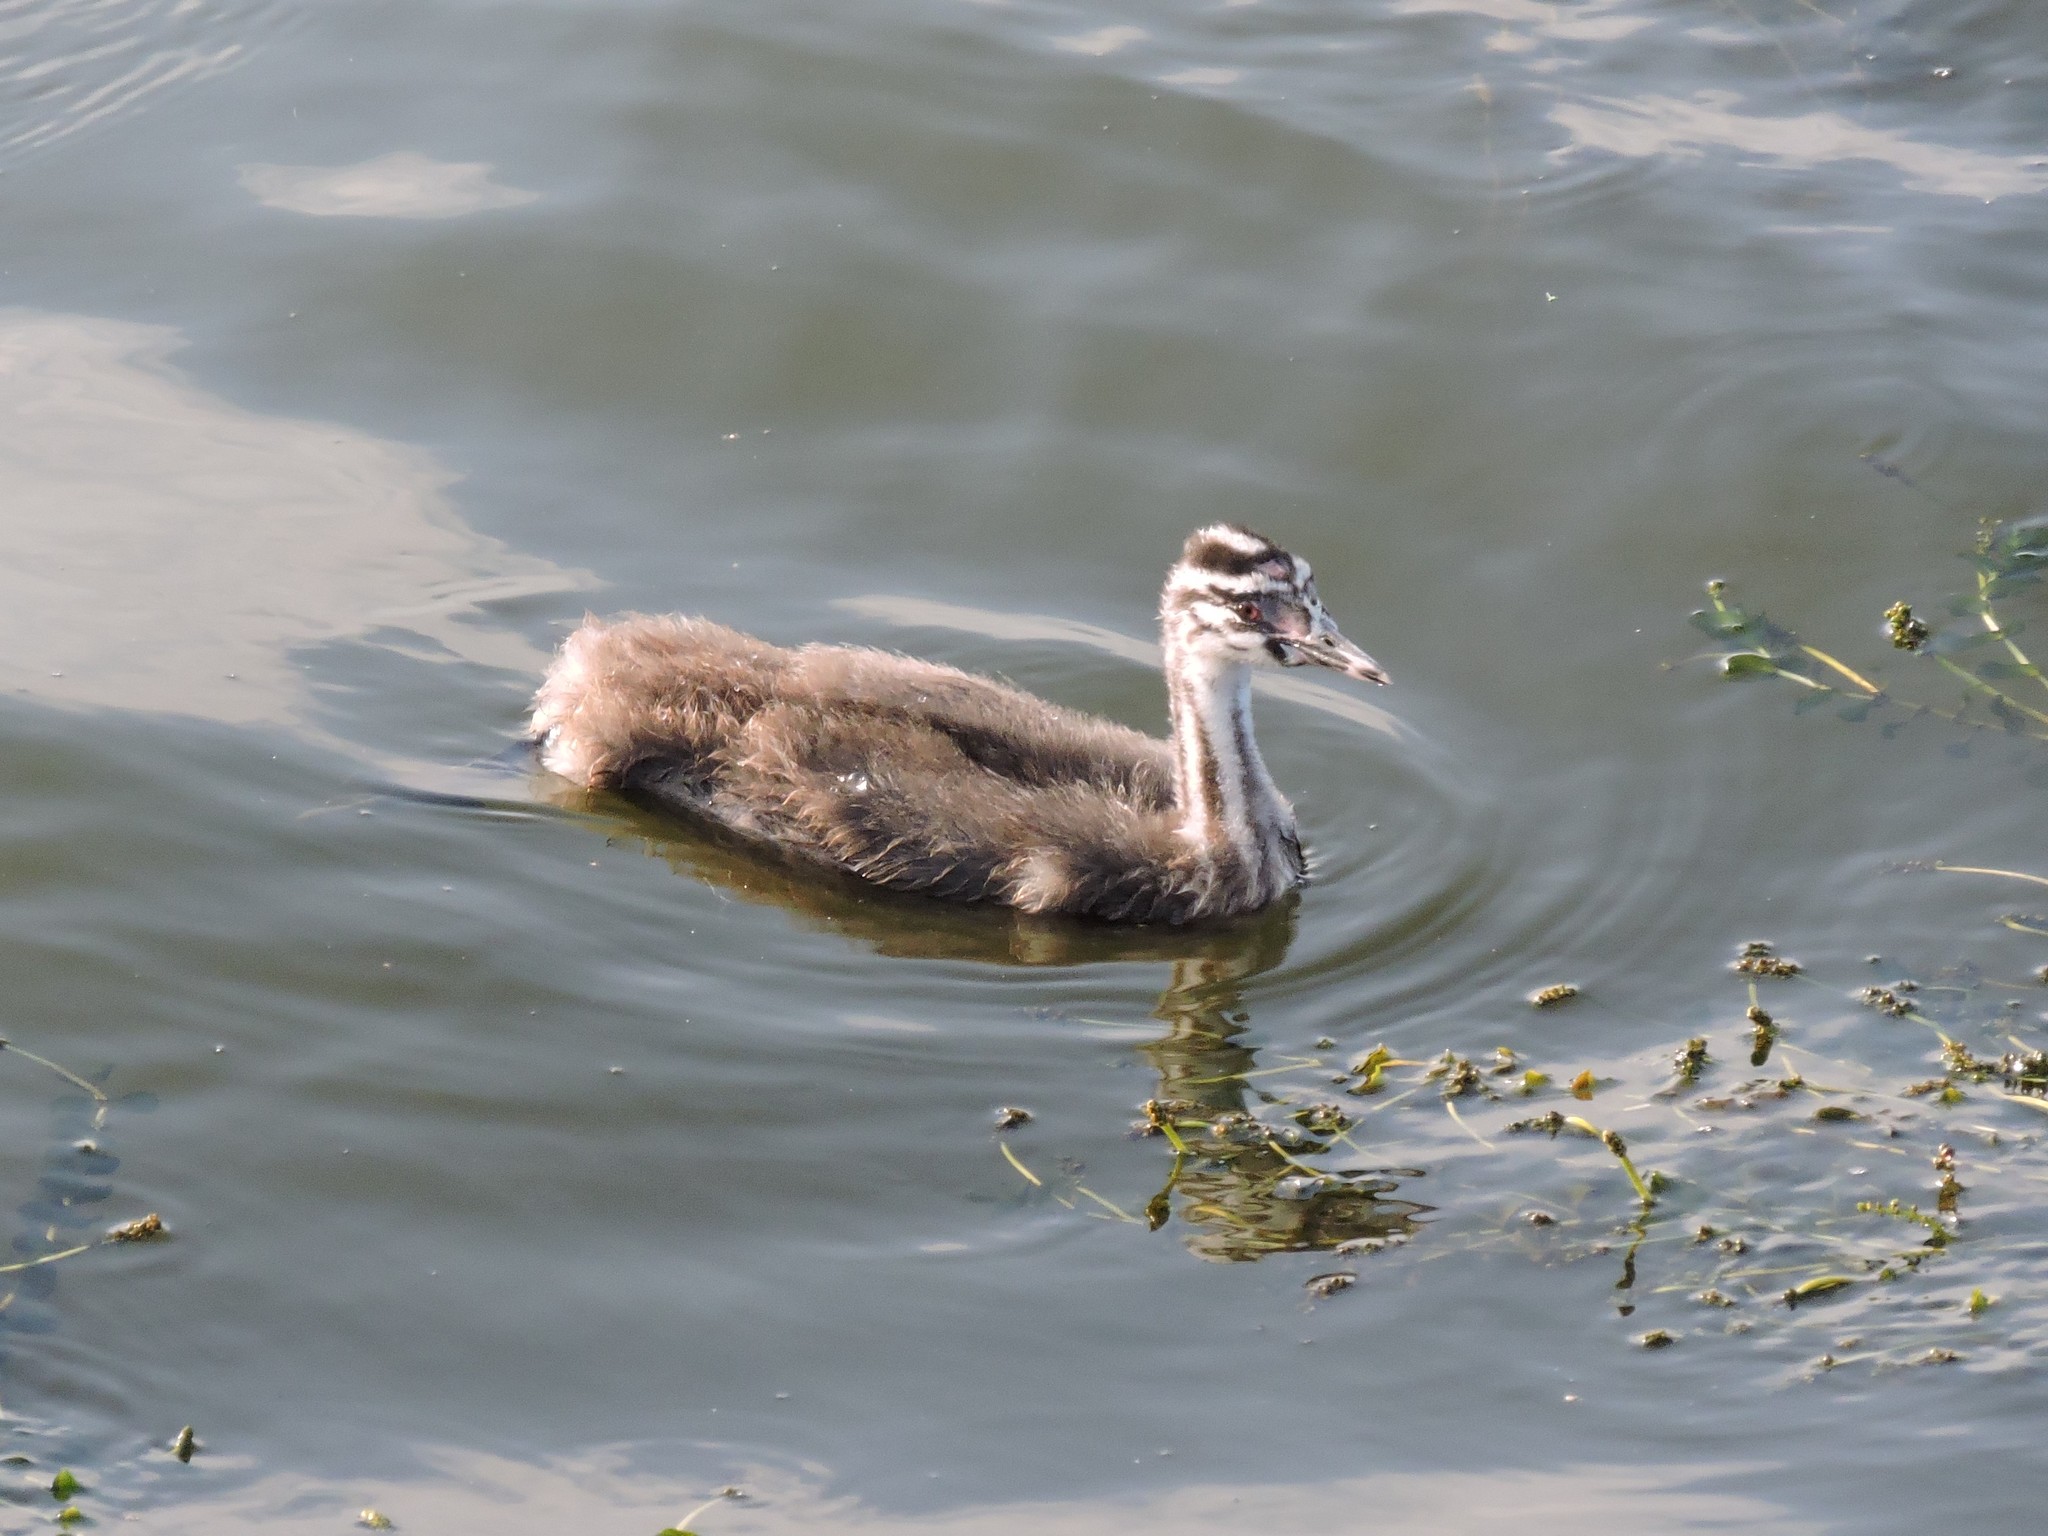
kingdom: Animalia
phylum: Chordata
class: Aves
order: Podicipediformes
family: Podicipedidae
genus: Podiceps
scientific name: Podiceps cristatus
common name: Great crested grebe
